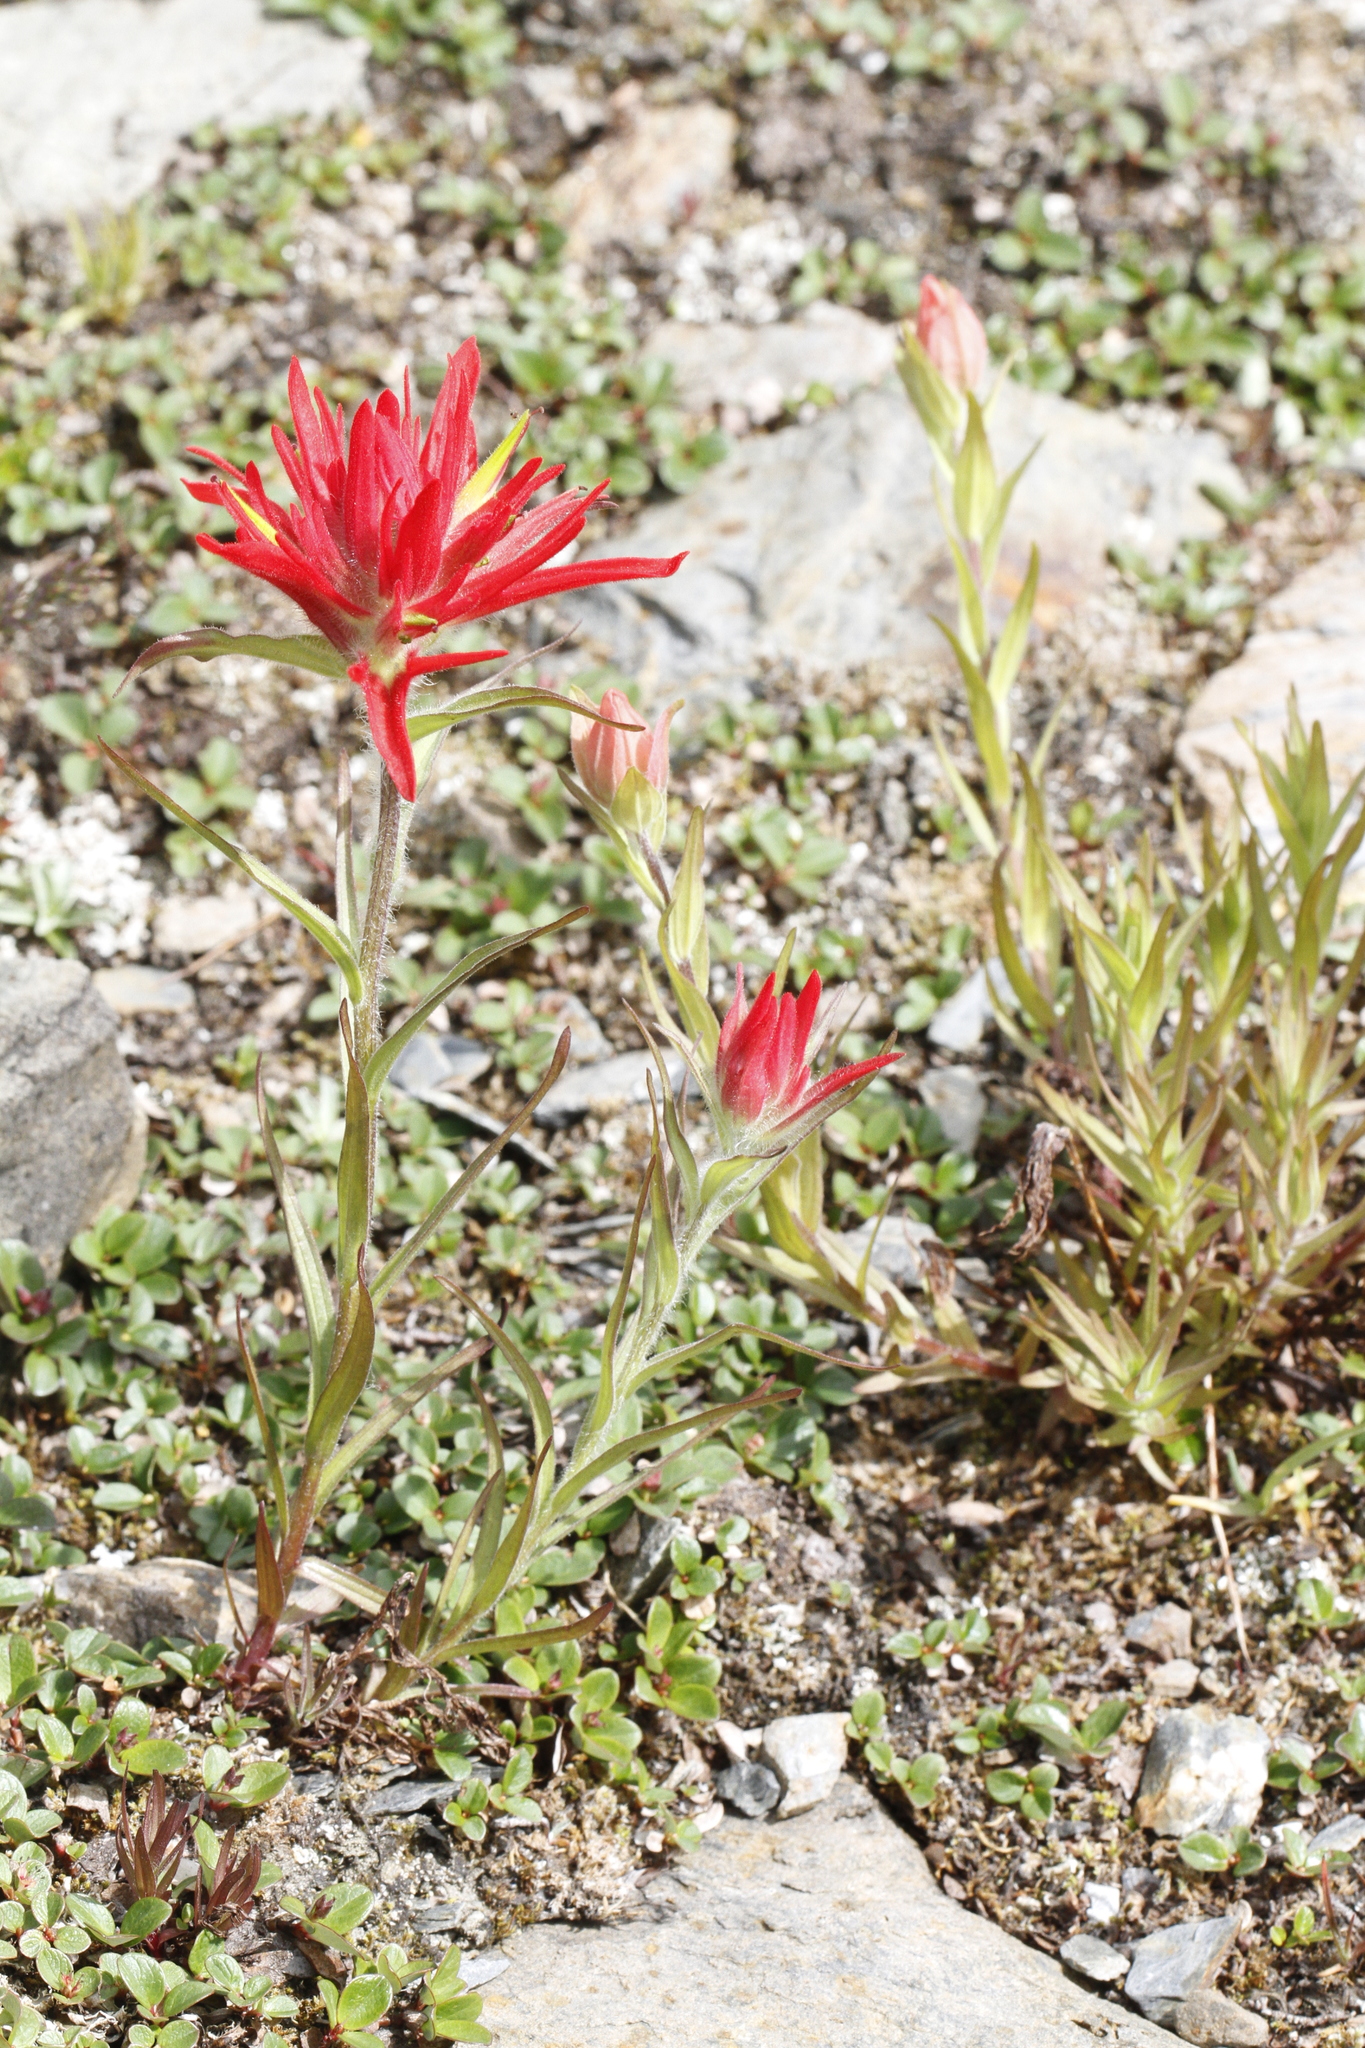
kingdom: Plantae
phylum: Tracheophyta
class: Magnoliopsida
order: Lamiales
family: Orobanchaceae
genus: Castilleja
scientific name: Castilleja rhexifolia
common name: Rocky mountain paintbrush
